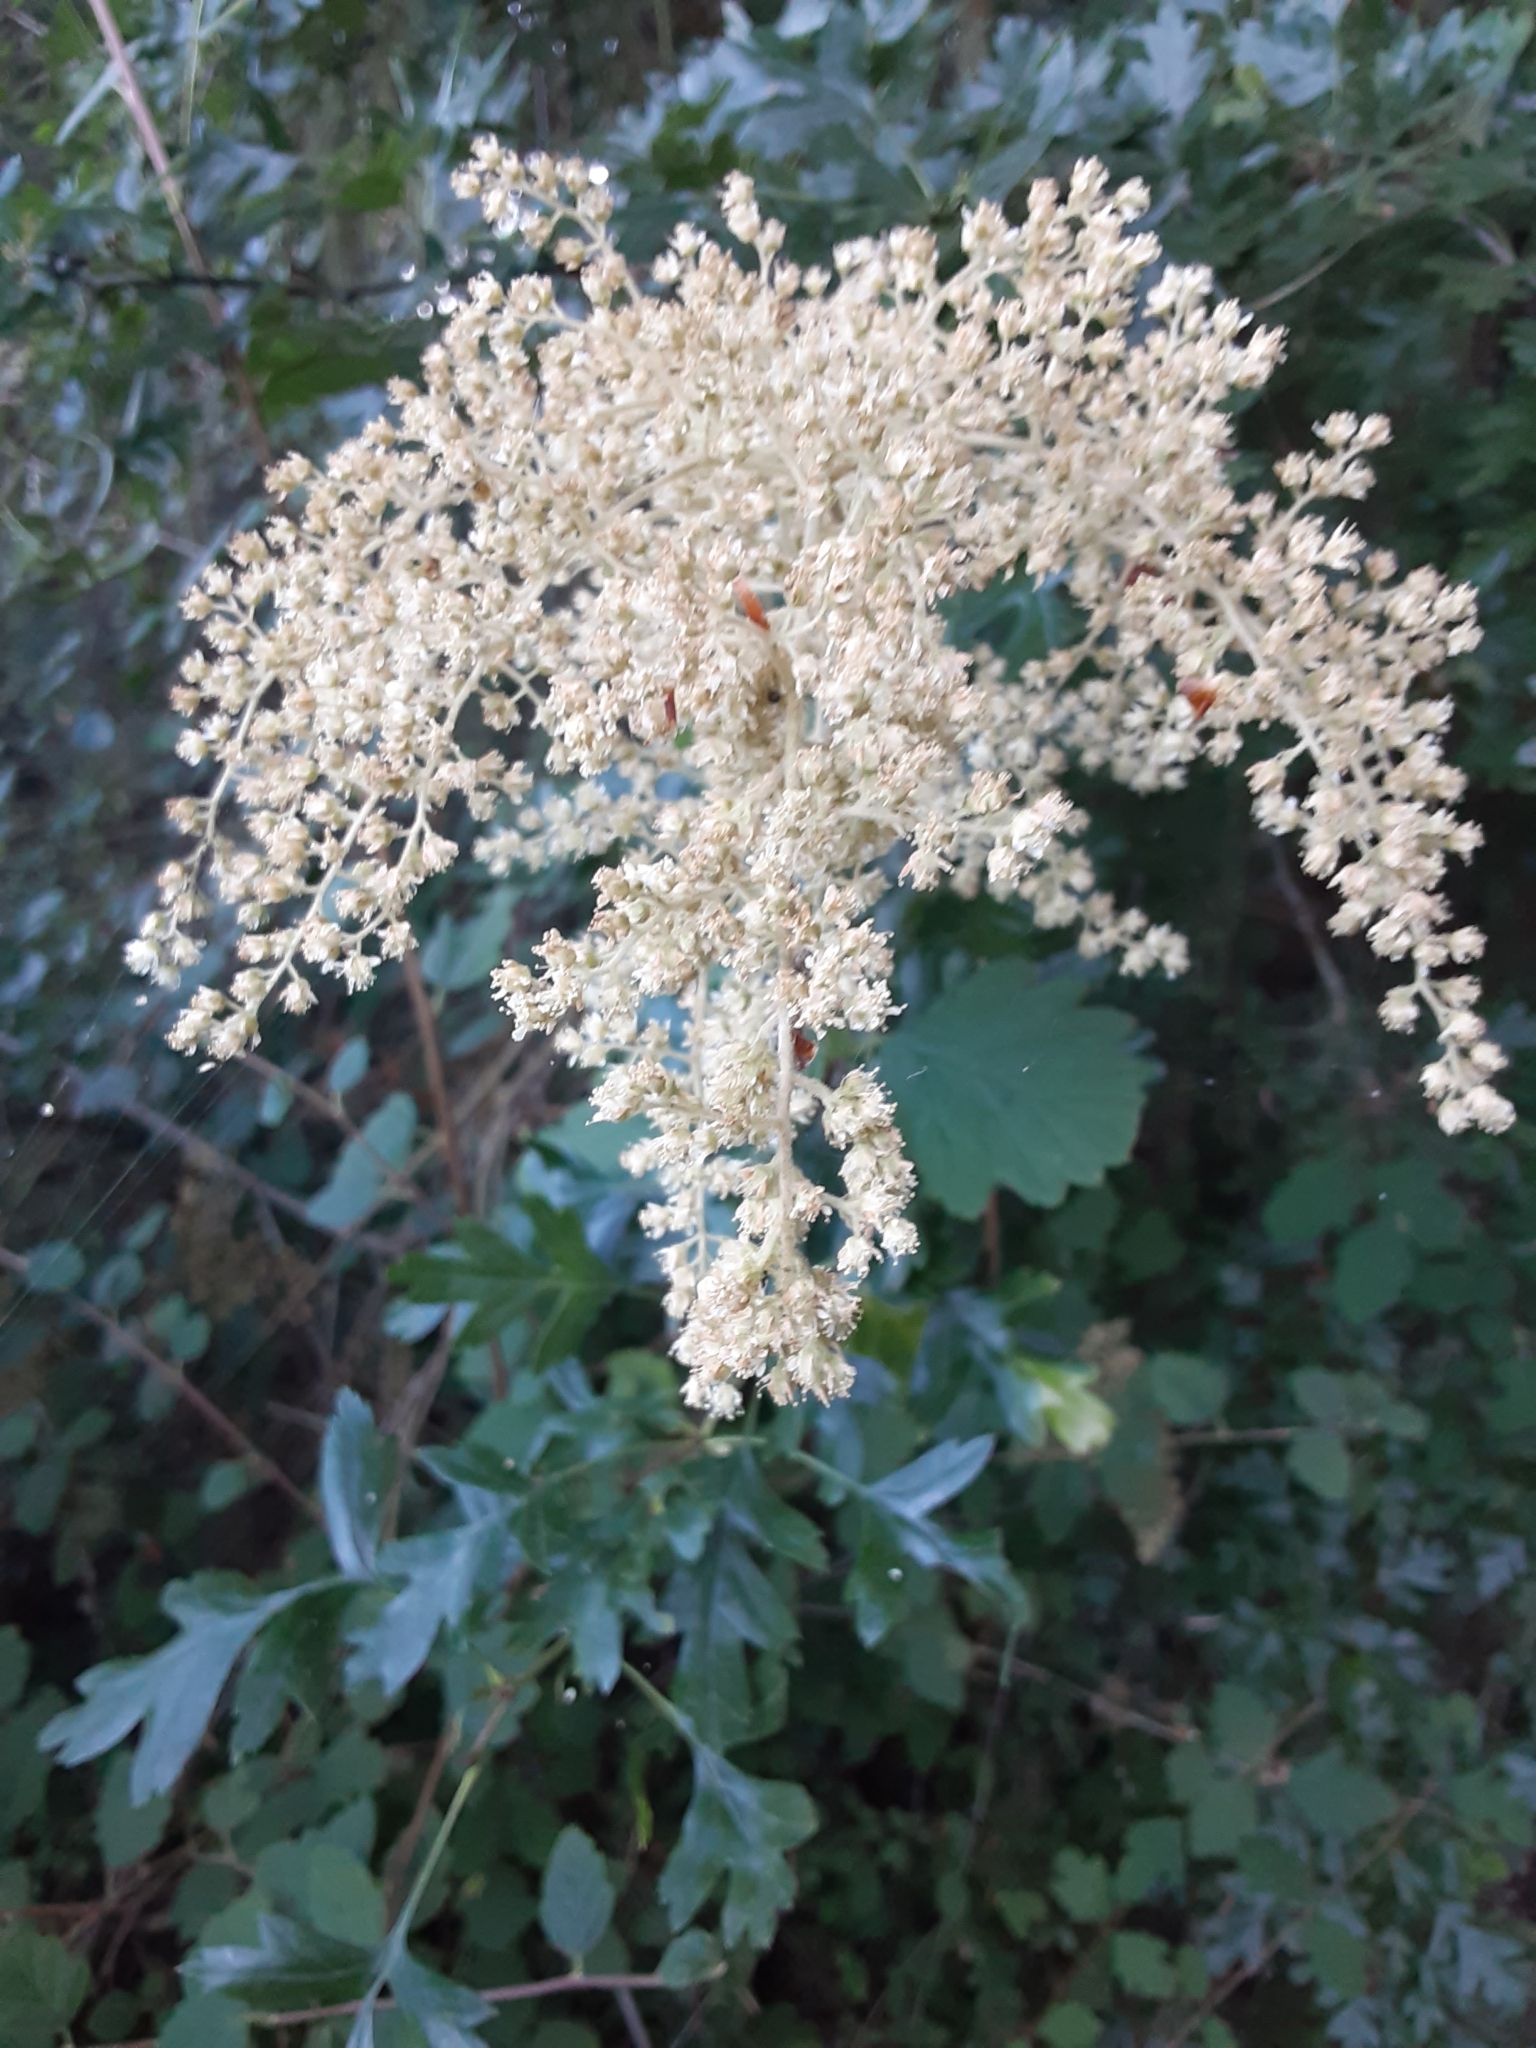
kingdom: Plantae
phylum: Tracheophyta
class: Magnoliopsida
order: Rosales
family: Rosaceae
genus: Holodiscus
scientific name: Holodiscus discolor
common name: Oceanspray
